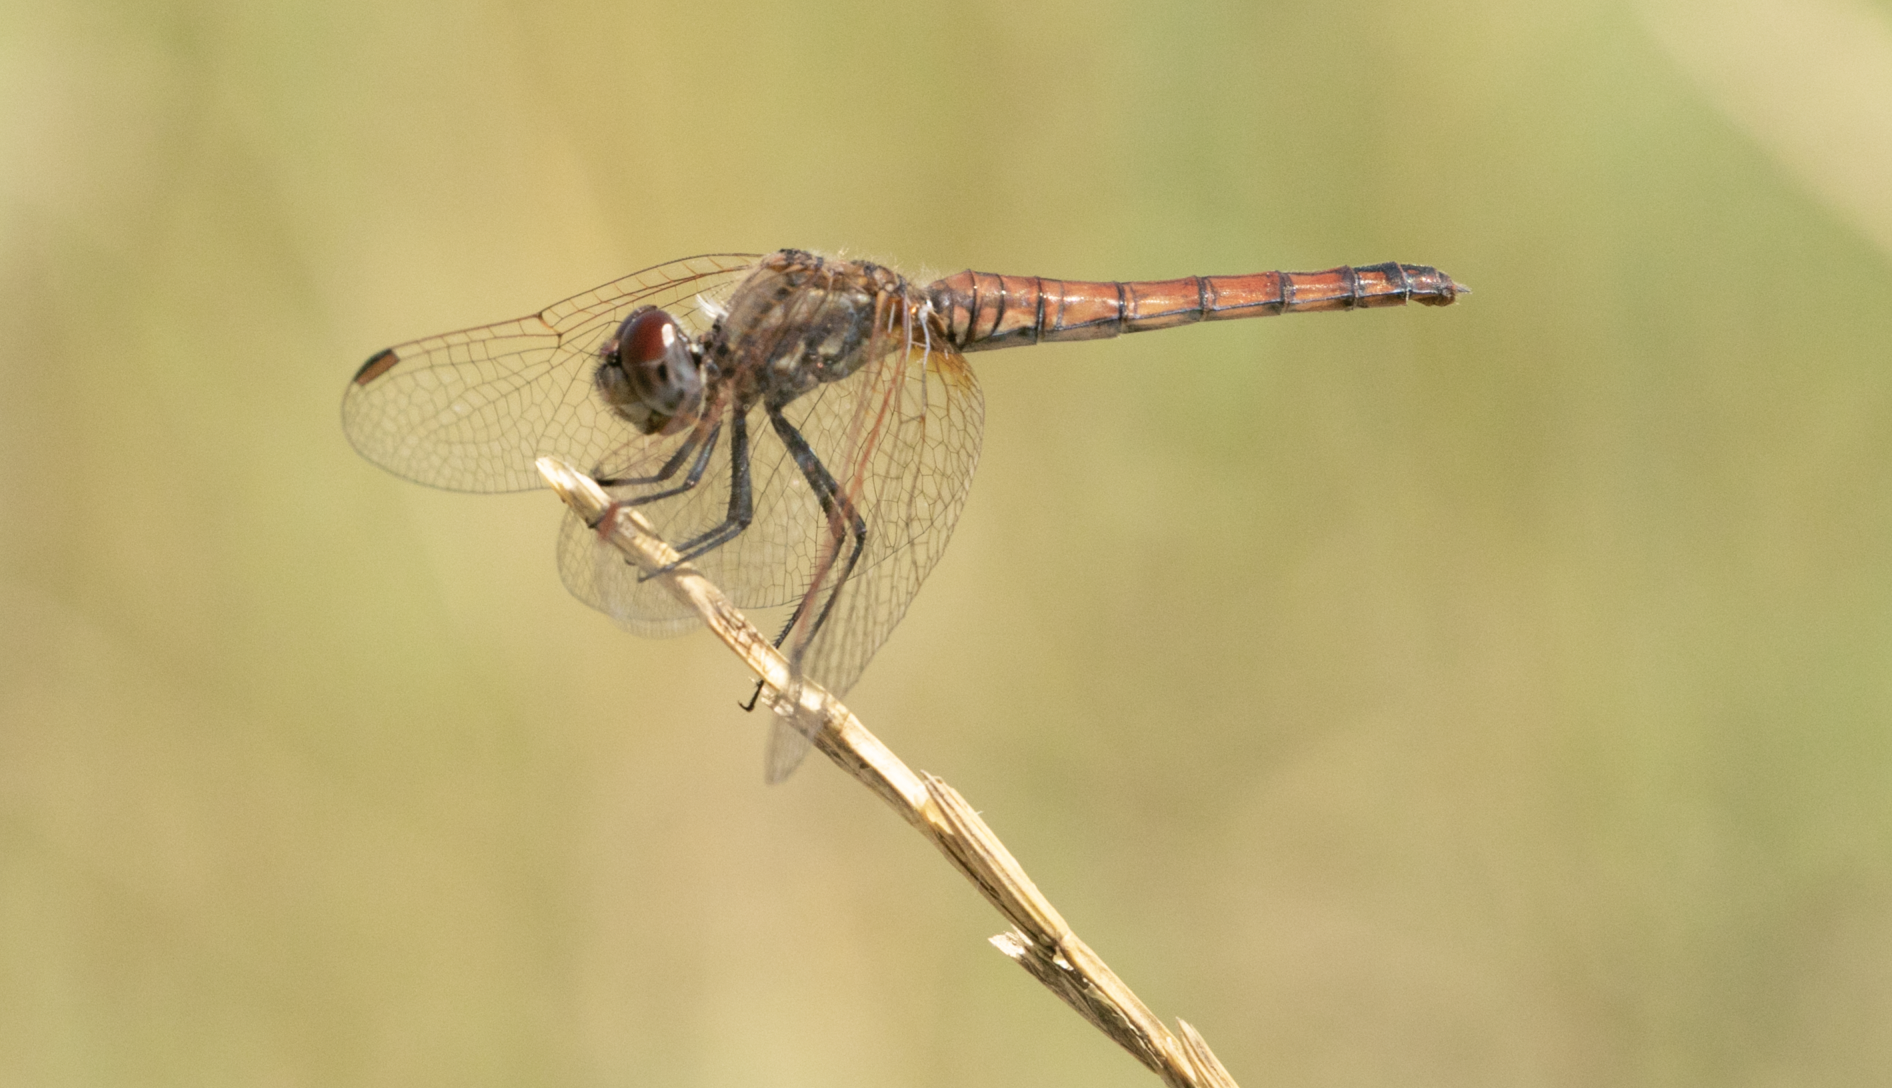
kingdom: Animalia
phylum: Arthropoda
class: Insecta
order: Odonata
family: Libellulidae
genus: Trithemis
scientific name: Trithemis annulata
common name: Violet dropwing
